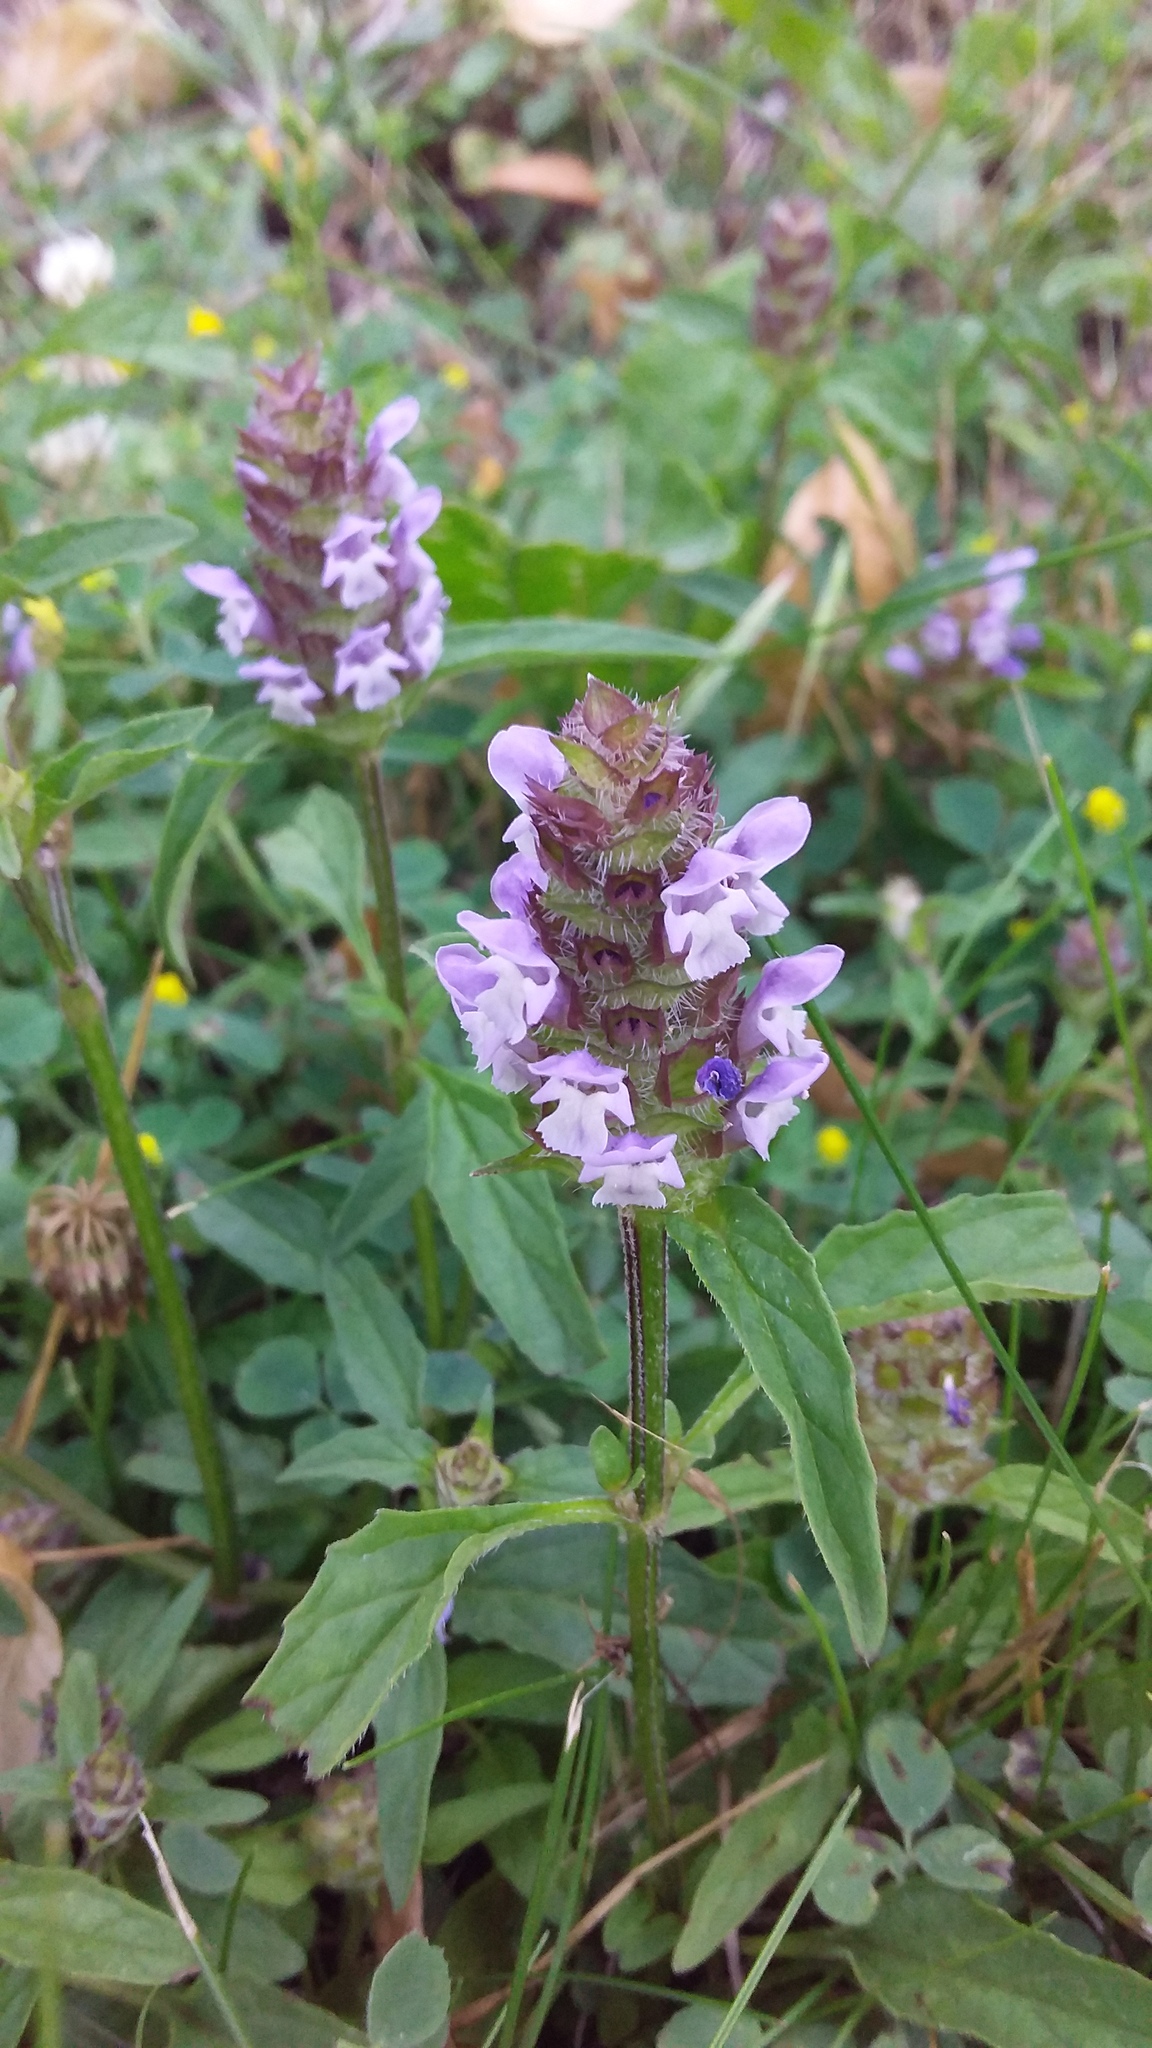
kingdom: Plantae
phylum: Tracheophyta
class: Magnoliopsida
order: Lamiales
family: Lamiaceae
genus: Prunella
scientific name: Prunella vulgaris
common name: Heal-all
